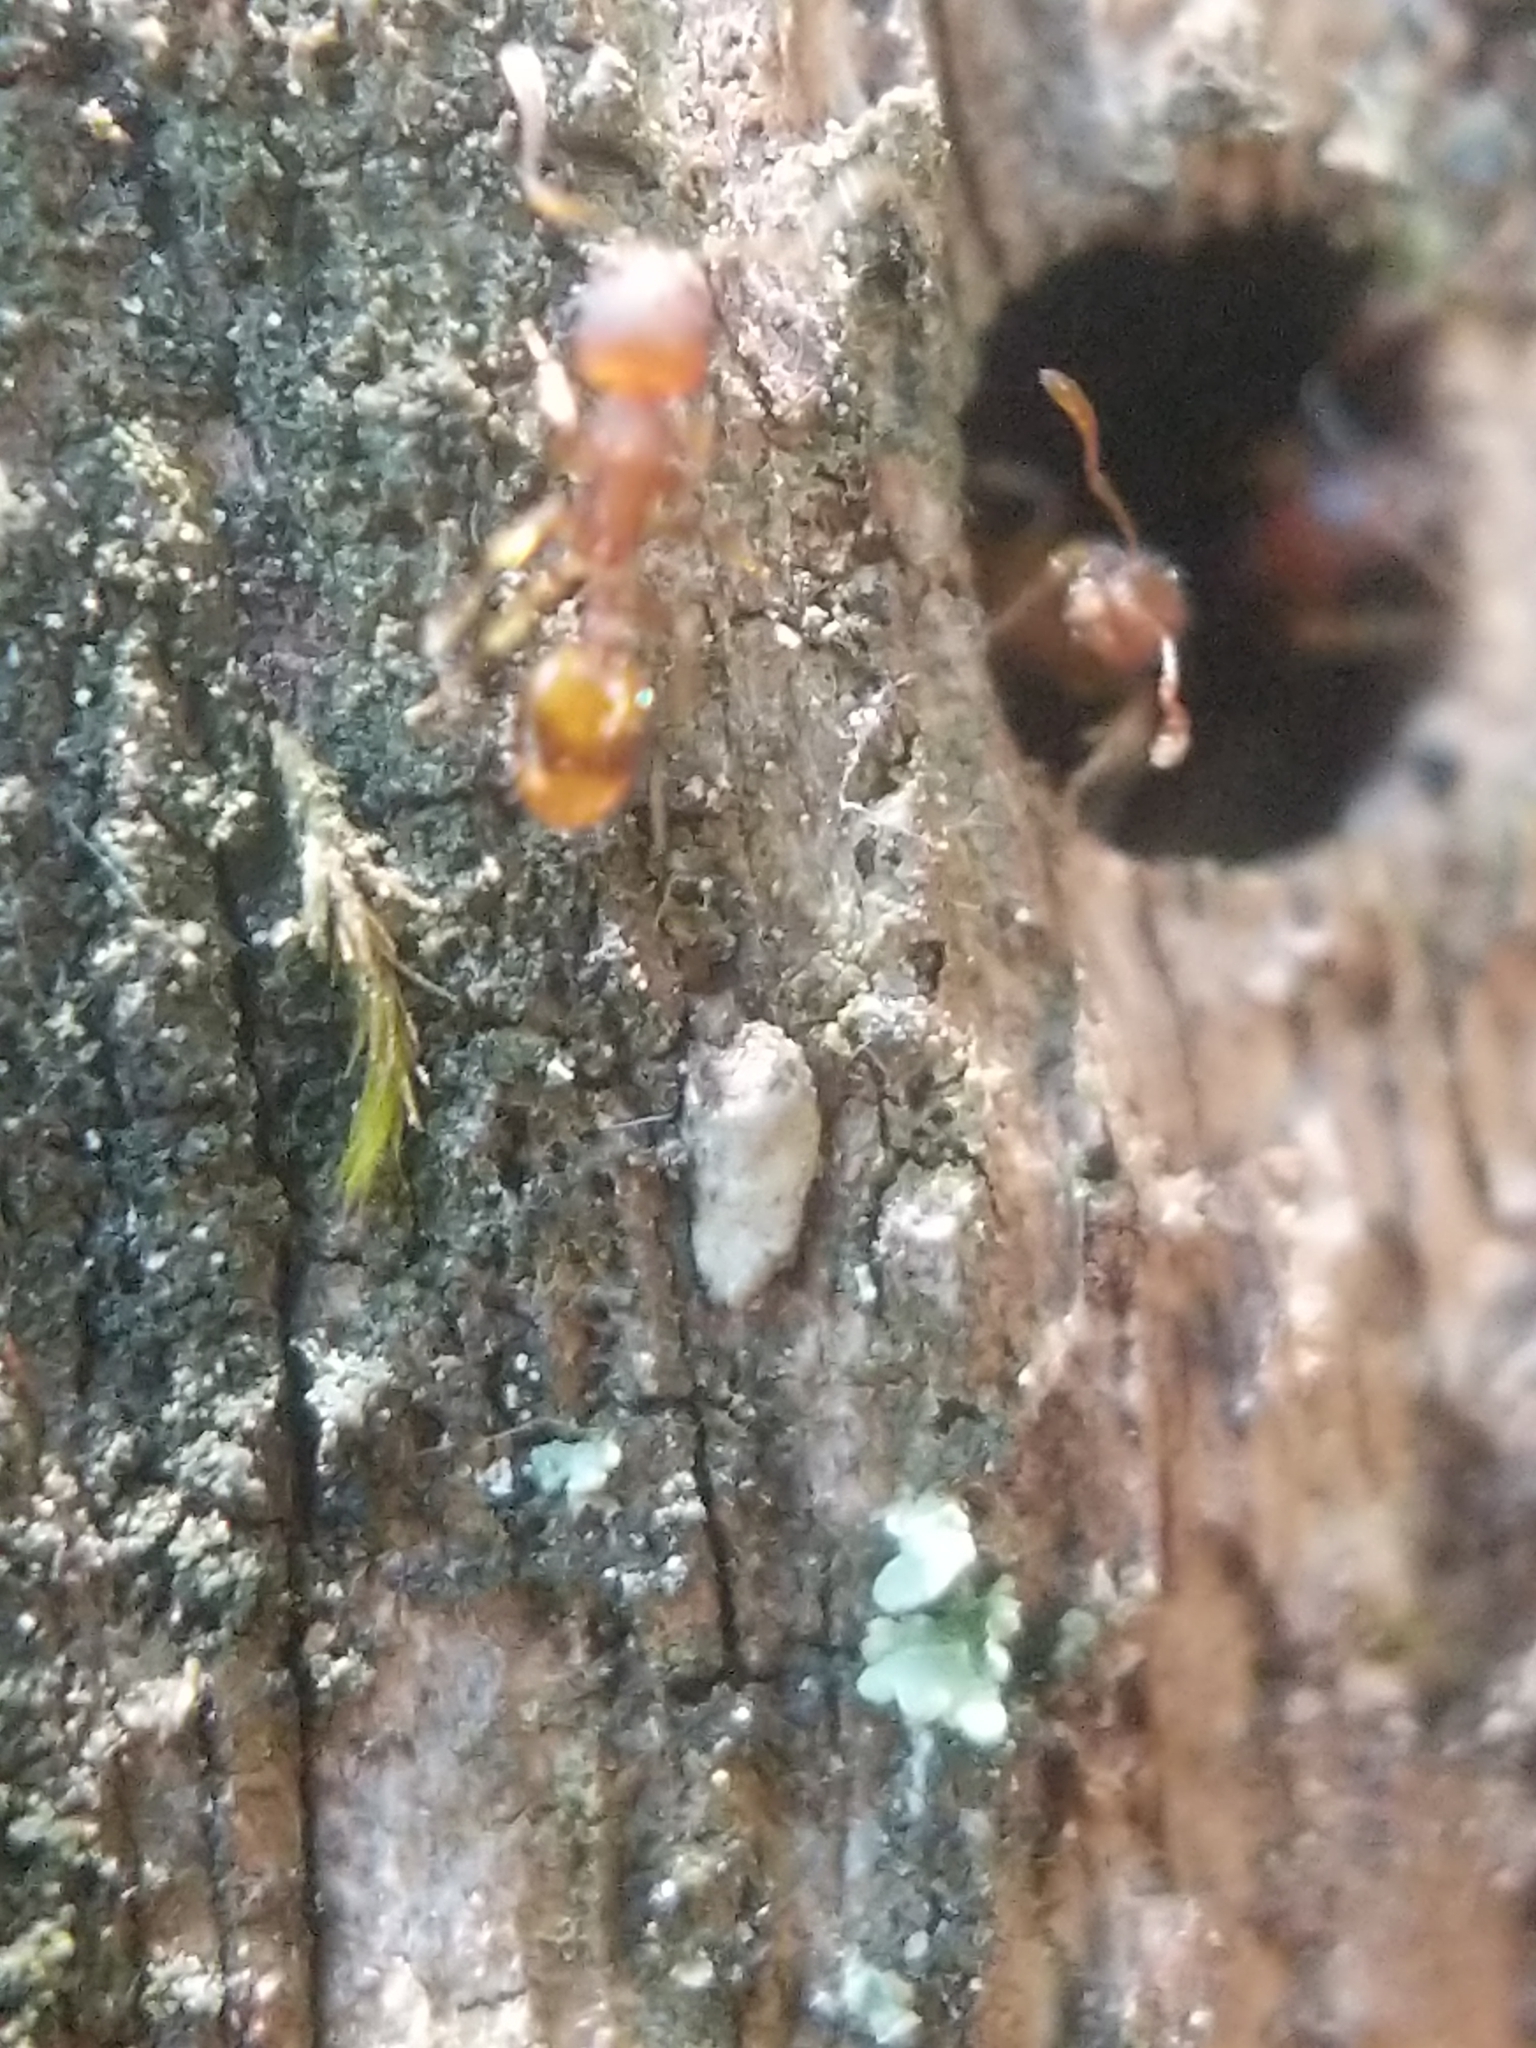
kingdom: Animalia
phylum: Arthropoda
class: Insecta
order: Hymenoptera
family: Formicidae
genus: Temnothorax
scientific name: Temnothorax curvispinosus
